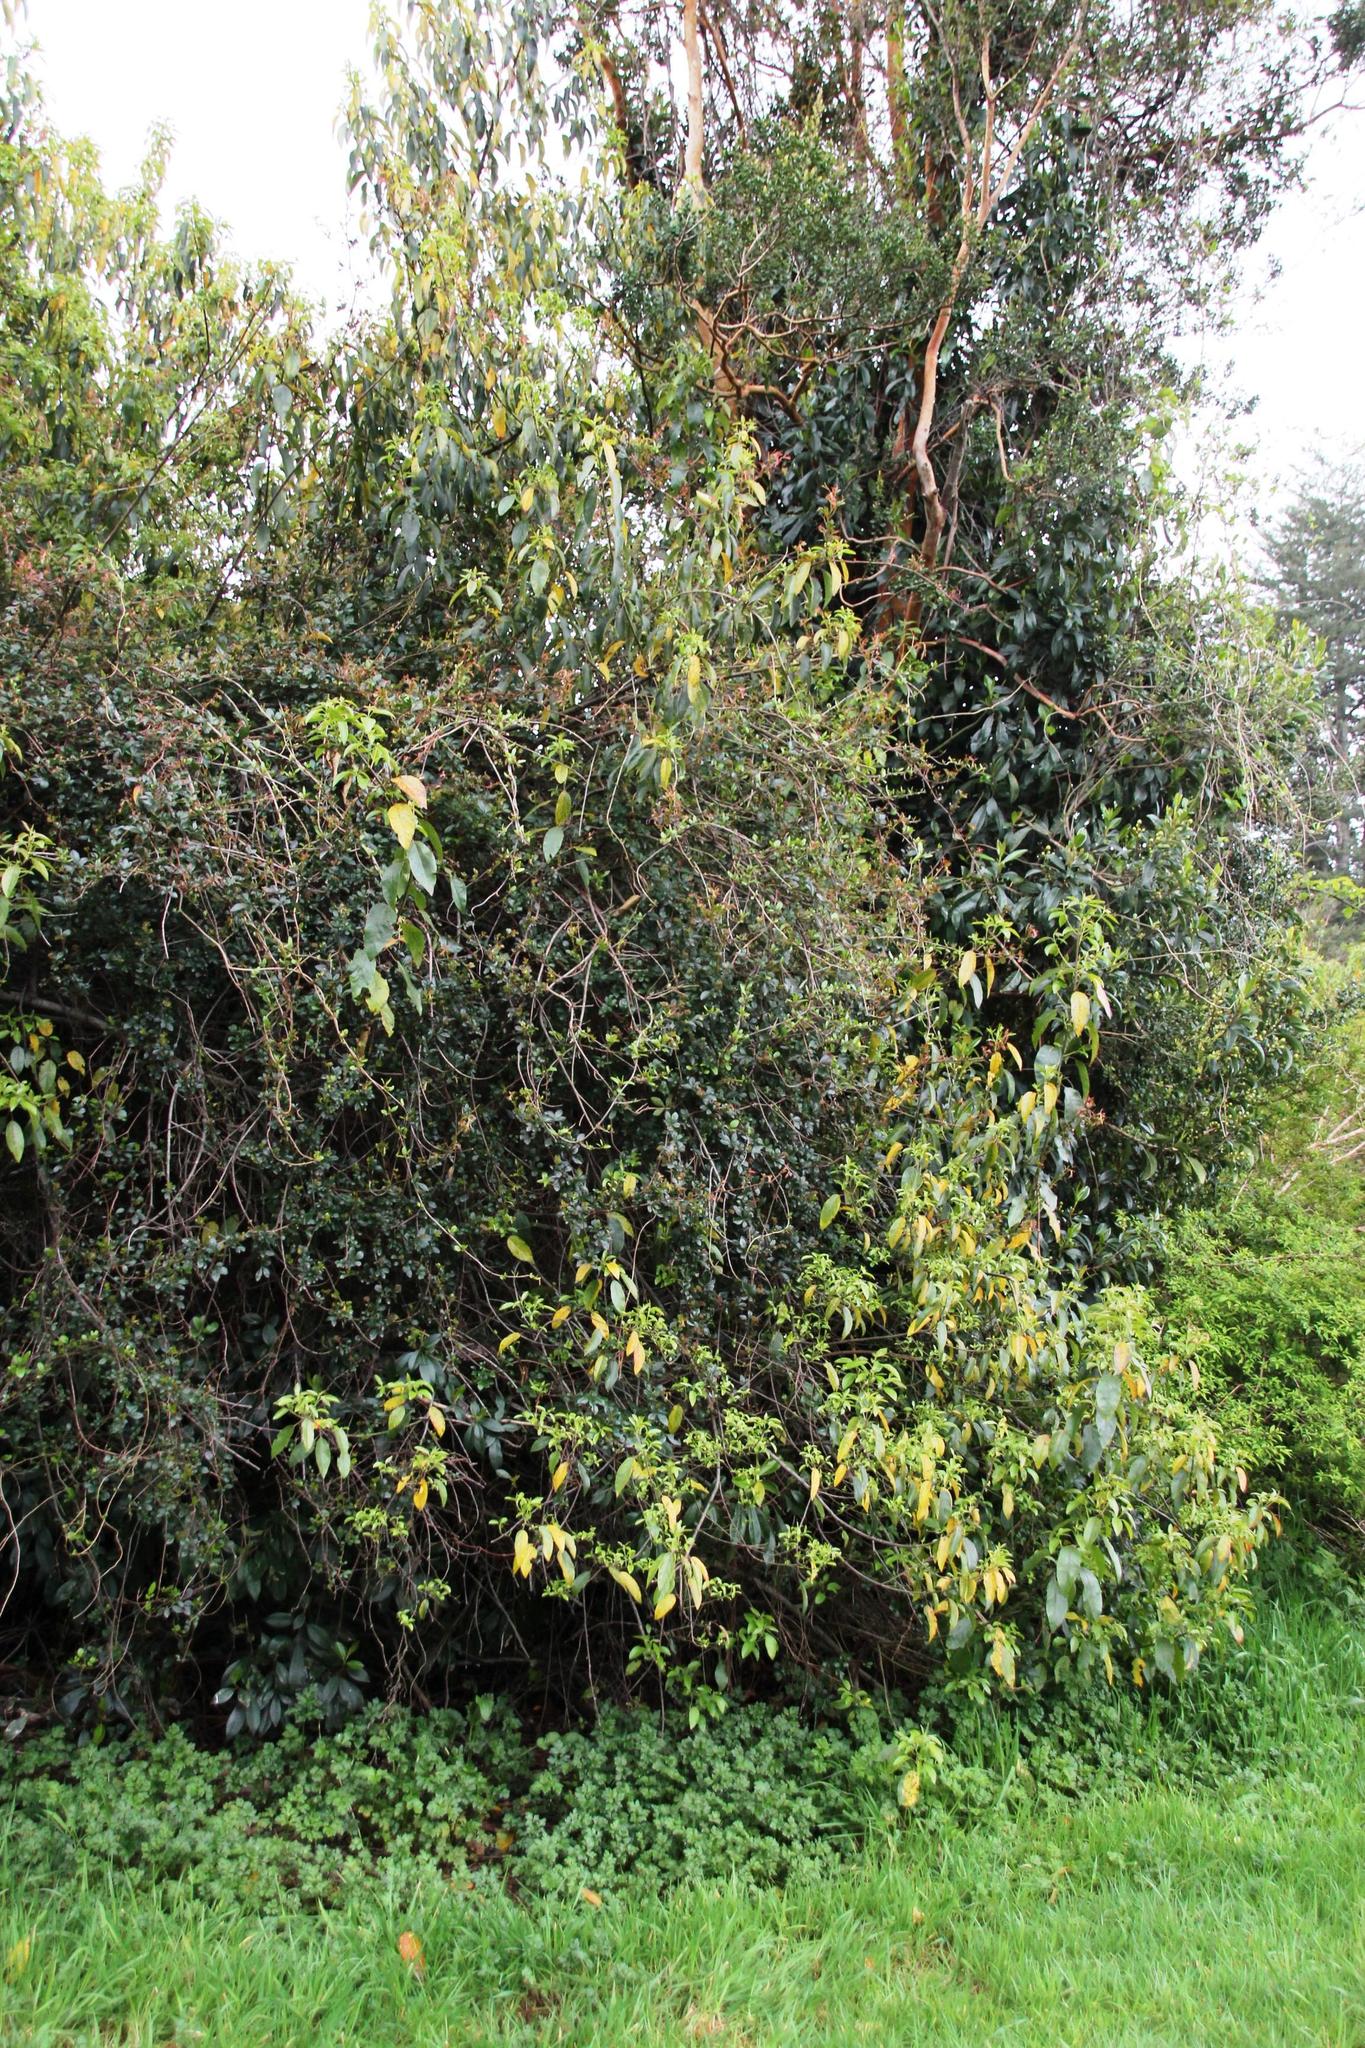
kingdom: Plantae
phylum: Tracheophyta
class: Magnoliopsida
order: Vitales
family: Vitaceae
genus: Clematicissus
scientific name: Clematicissus striata
